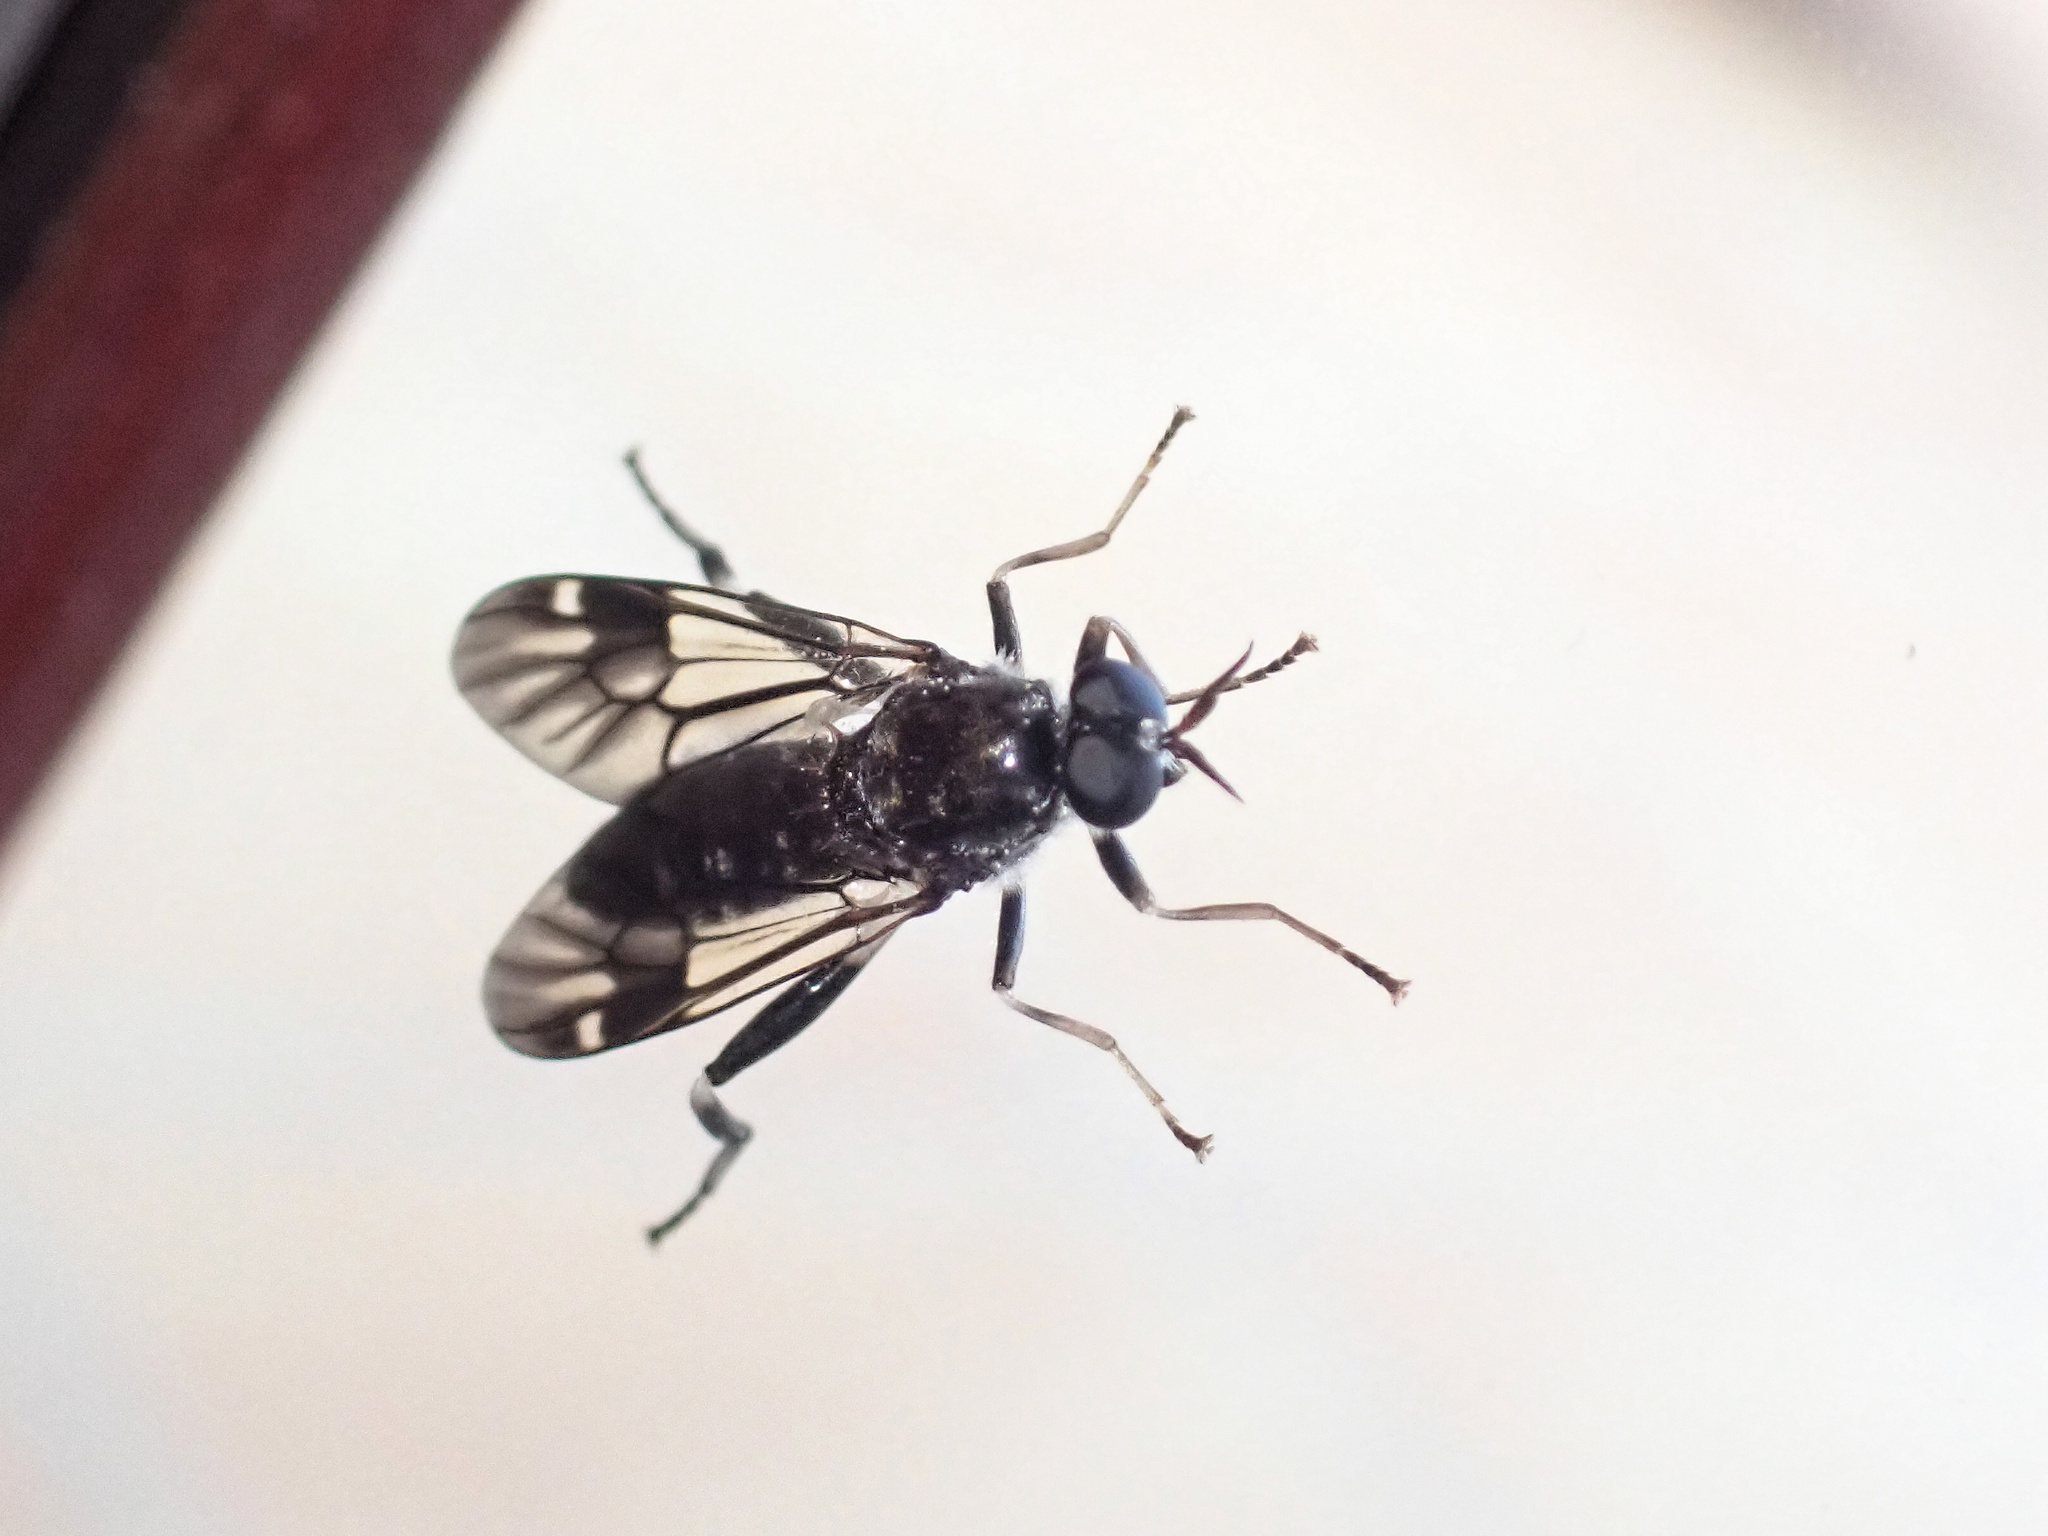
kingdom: Animalia
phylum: Arthropoda
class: Insecta
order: Diptera
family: Stratiomyidae
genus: Exaireta
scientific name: Exaireta spinigera
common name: Blue soldier fly
